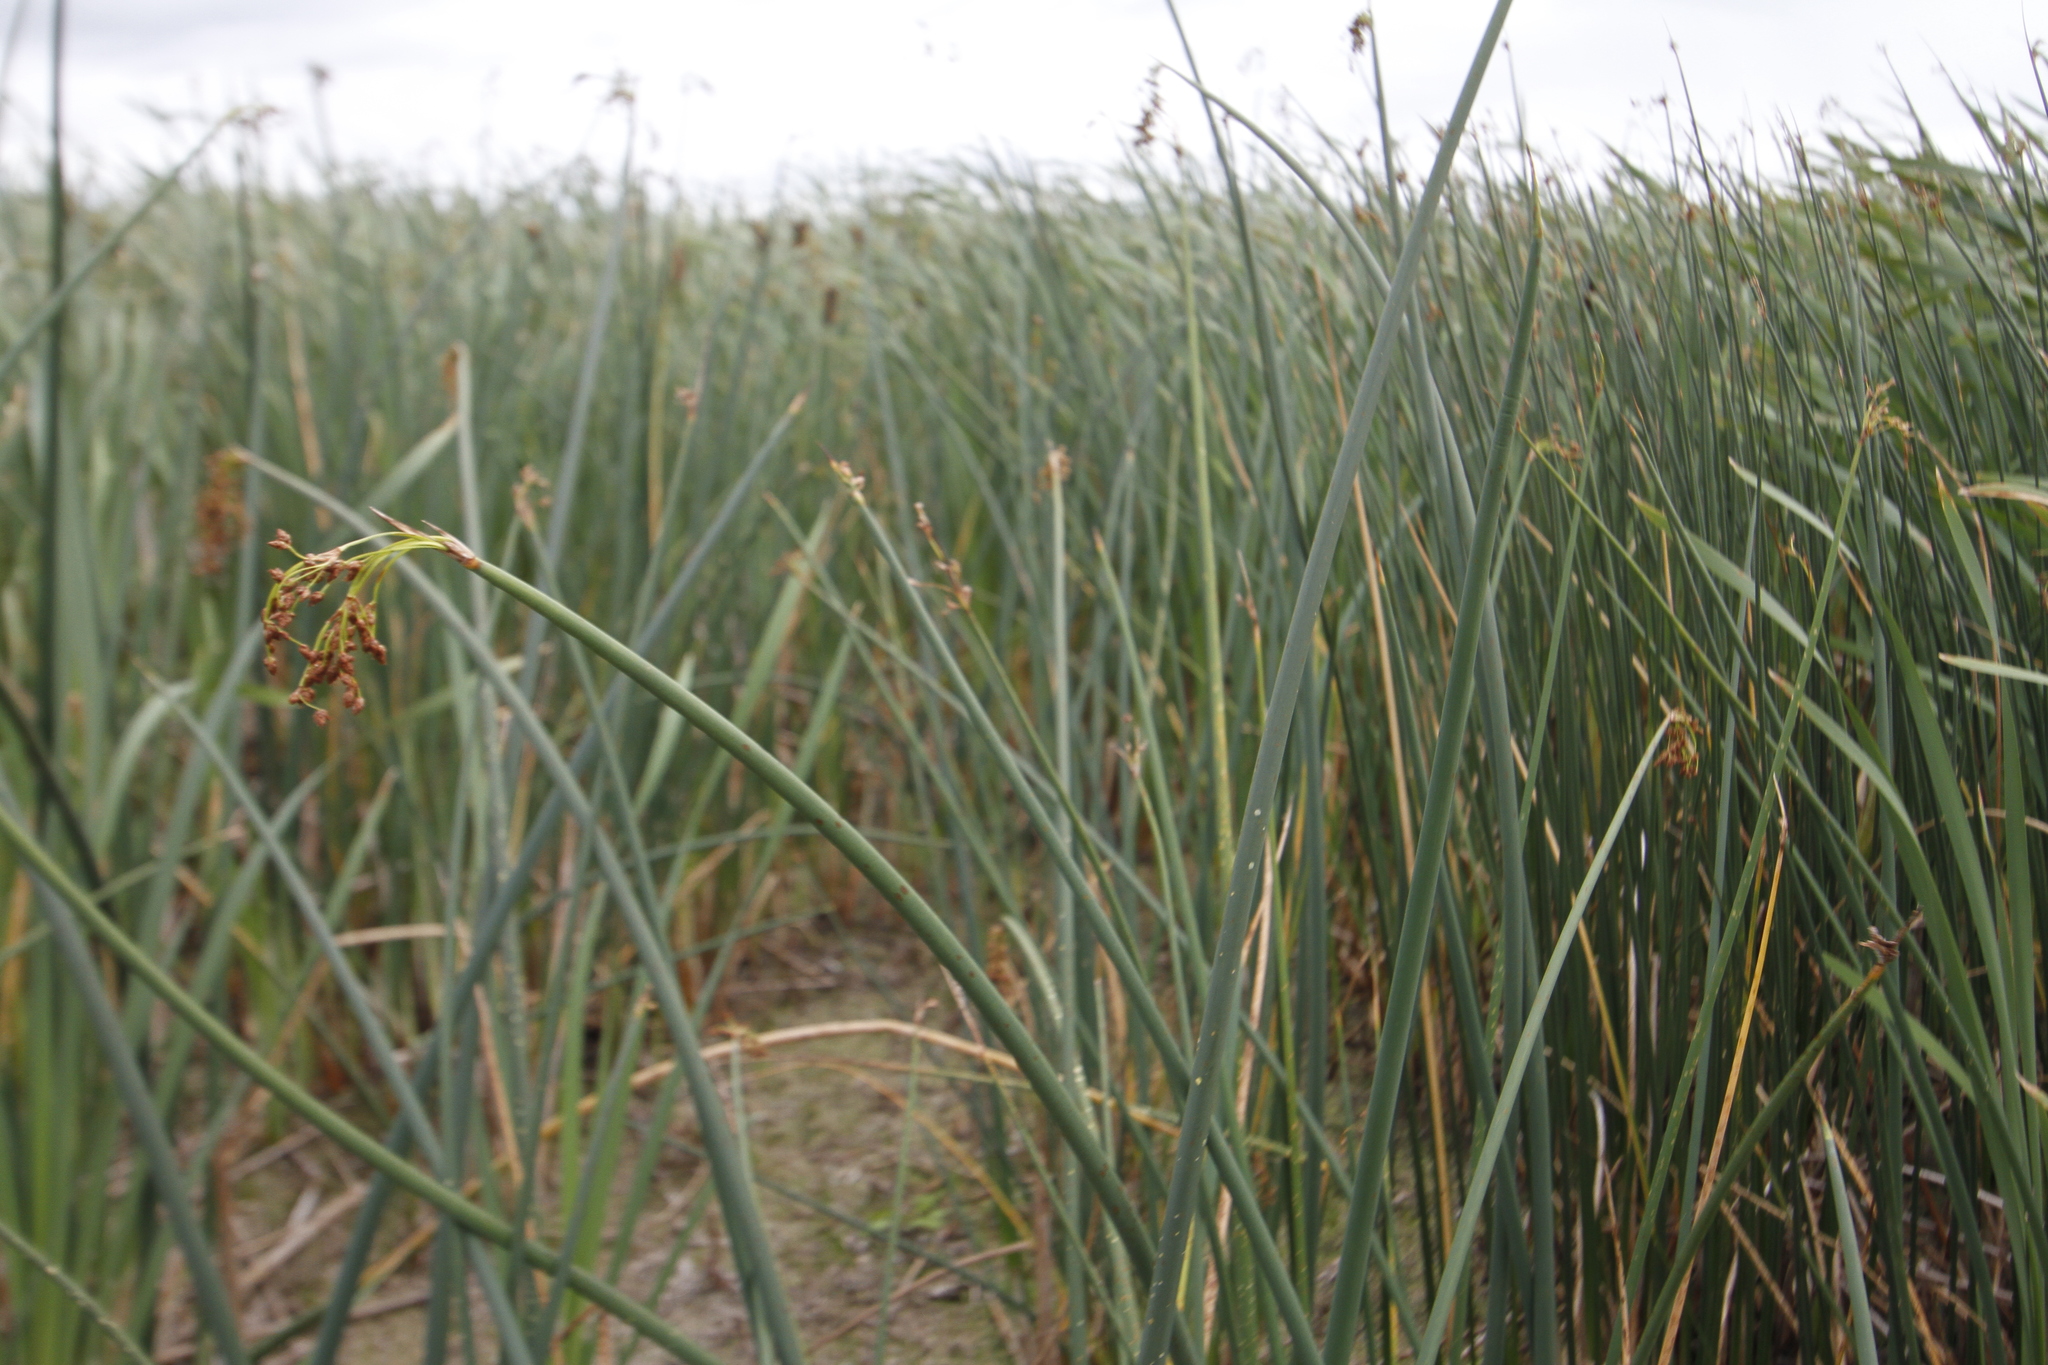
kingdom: Plantae
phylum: Tracheophyta
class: Liliopsida
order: Poales
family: Cyperaceae
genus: Schoenoplectus
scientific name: Schoenoplectus tabernaemontani
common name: Grey club-rush
